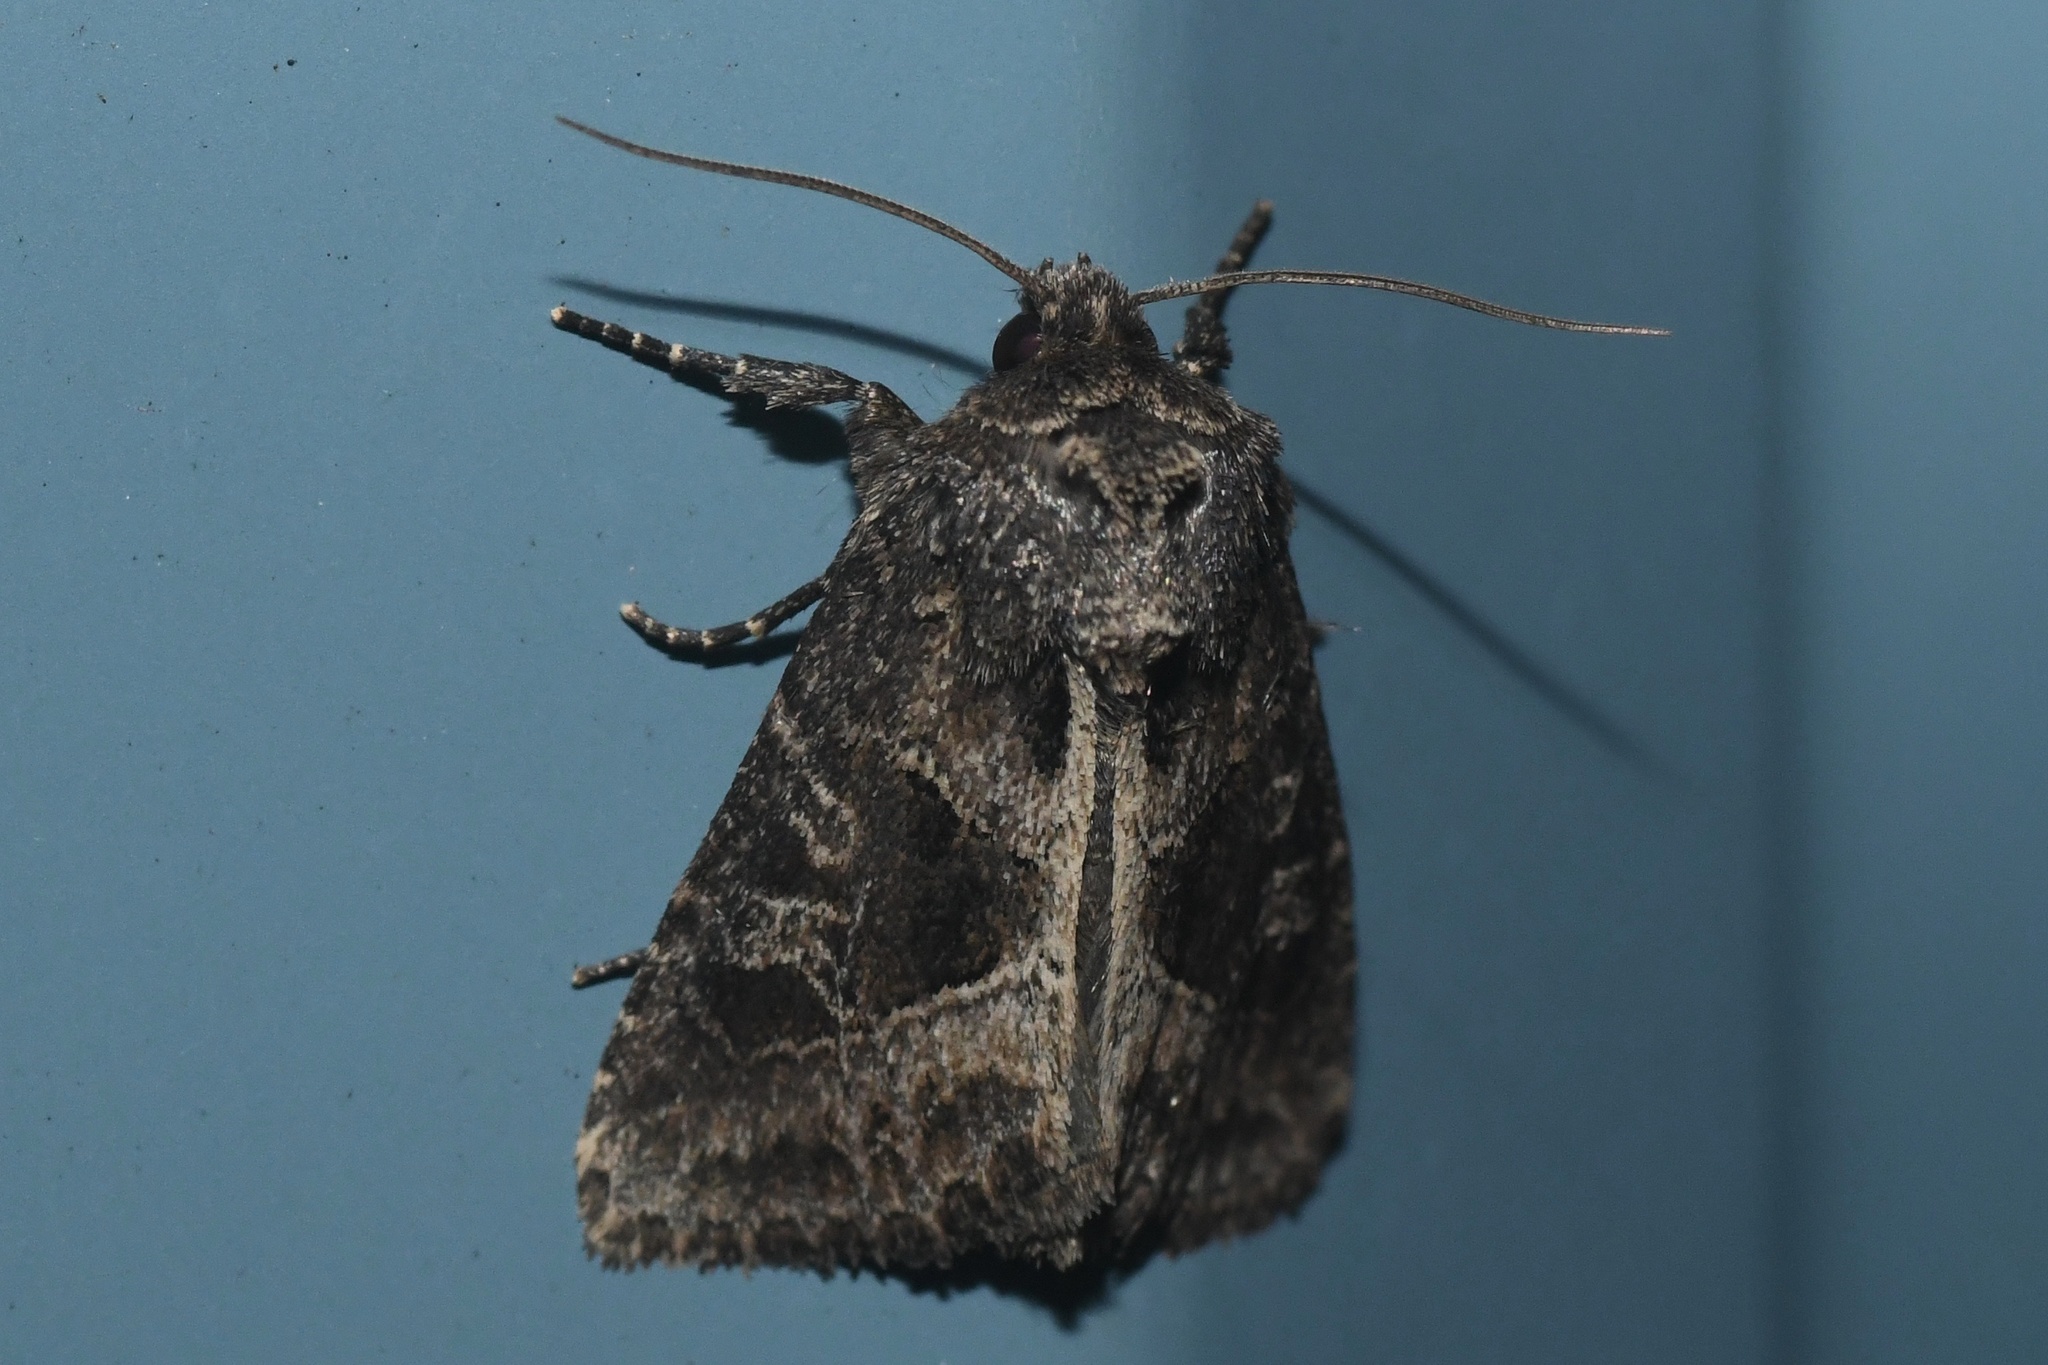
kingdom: Animalia
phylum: Arthropoda
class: Insecta
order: Lepidoptera
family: Noctuidae
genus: Helotropha
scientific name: Helotropha reniformis
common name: Kidney-spotted rustic moth
